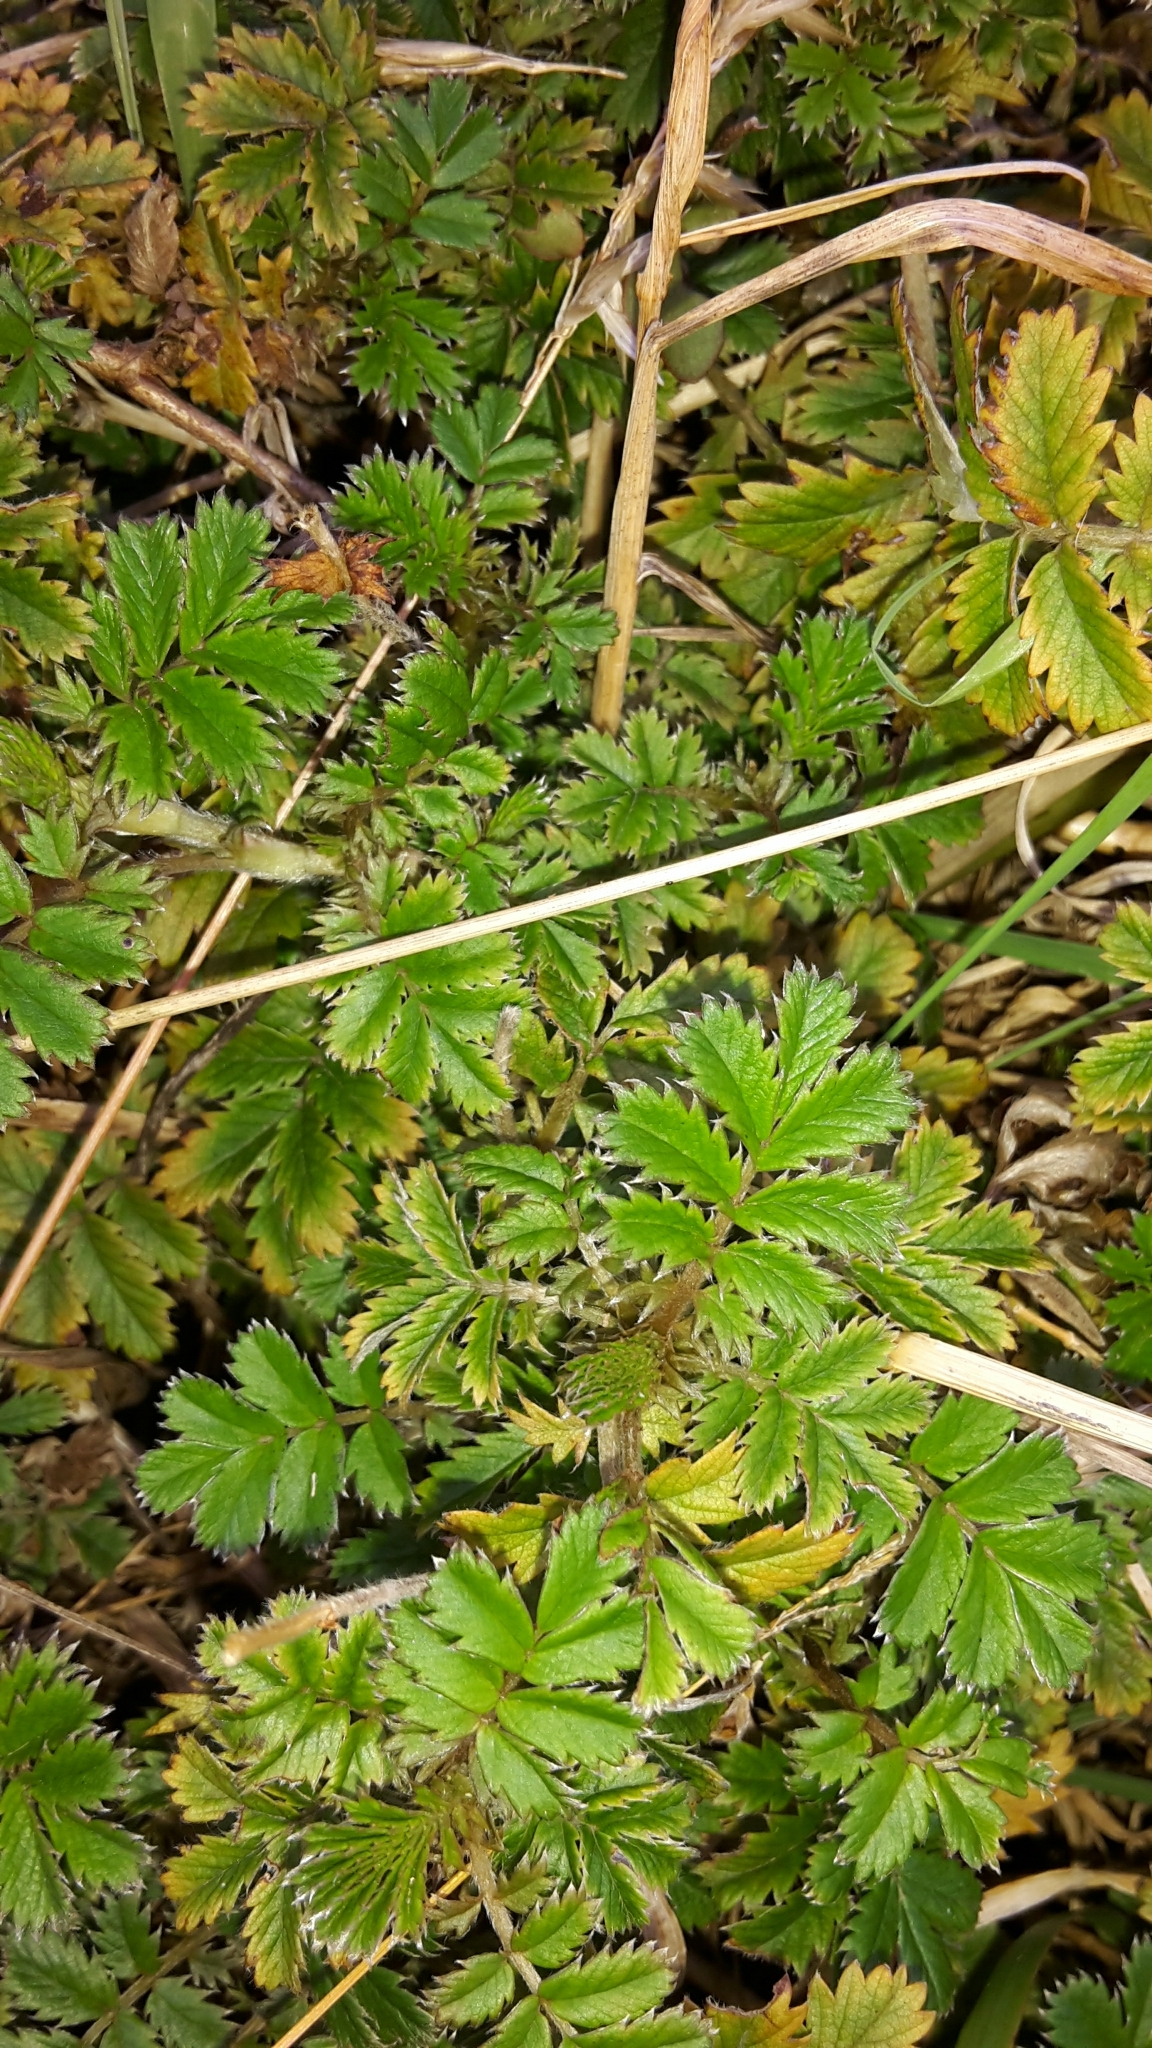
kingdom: Plantae
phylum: Tracheophyta
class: Magnoliopsida
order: Rosales
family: Rosaceae
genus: Acaena
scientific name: Acaena anserinifolia
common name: Bronze pirri-pirri-bur
